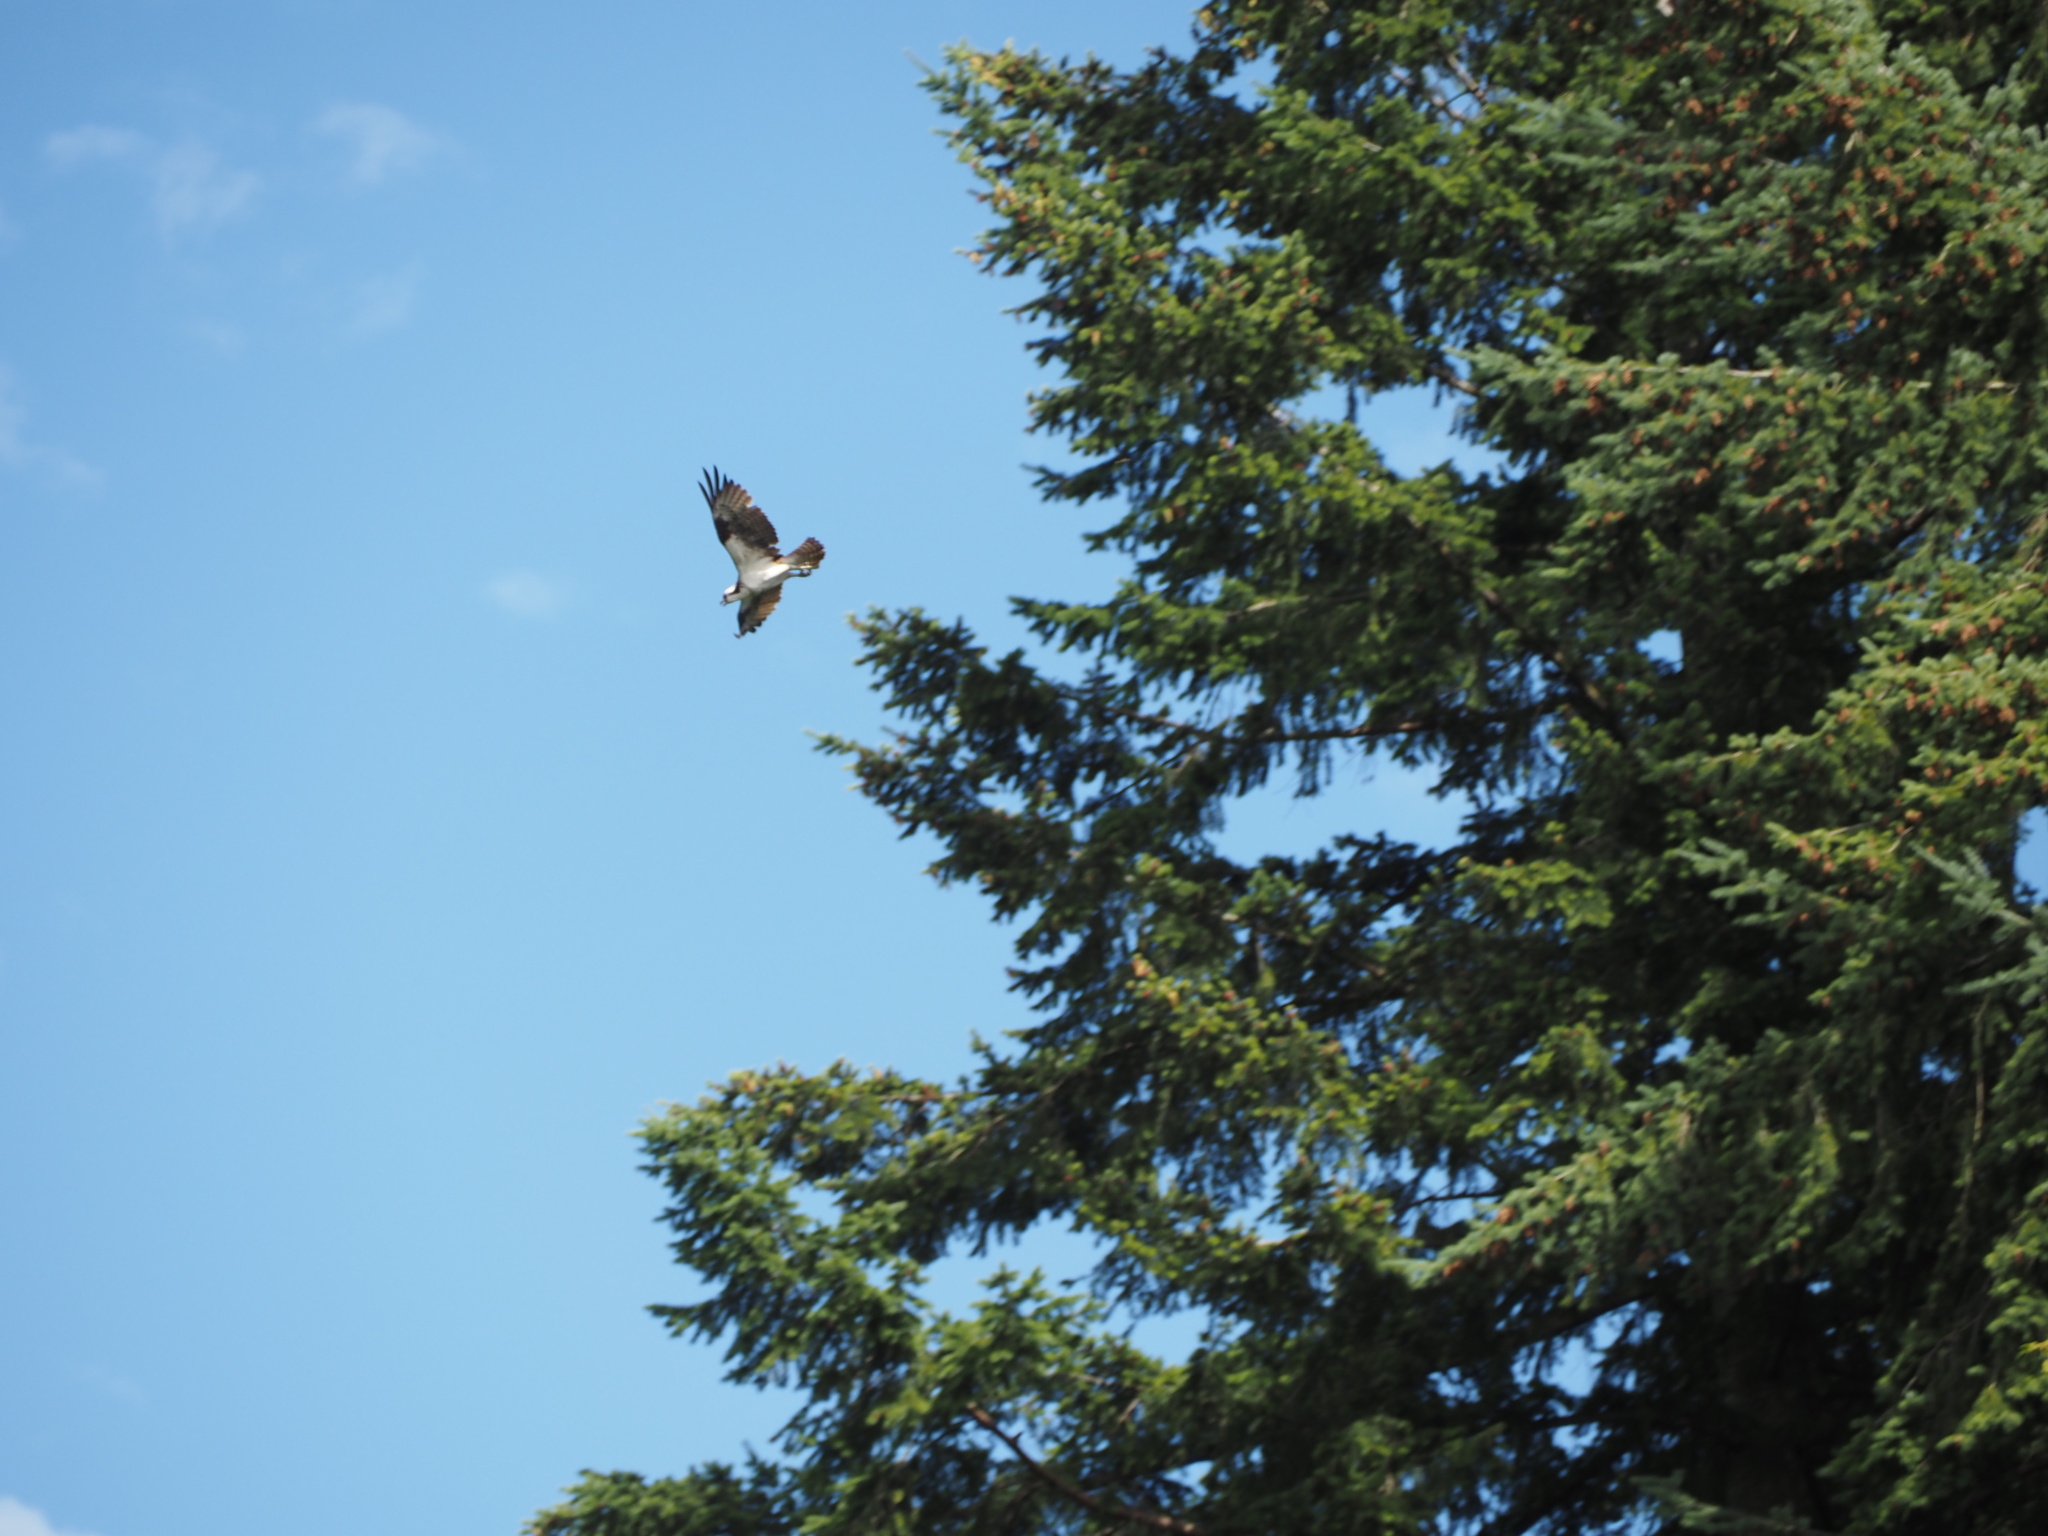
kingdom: Animalia
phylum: Chordata
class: Aves
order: Accipitriformes
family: Pandionidae
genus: Pandion
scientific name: Pandion haliaetus
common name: Osprey
